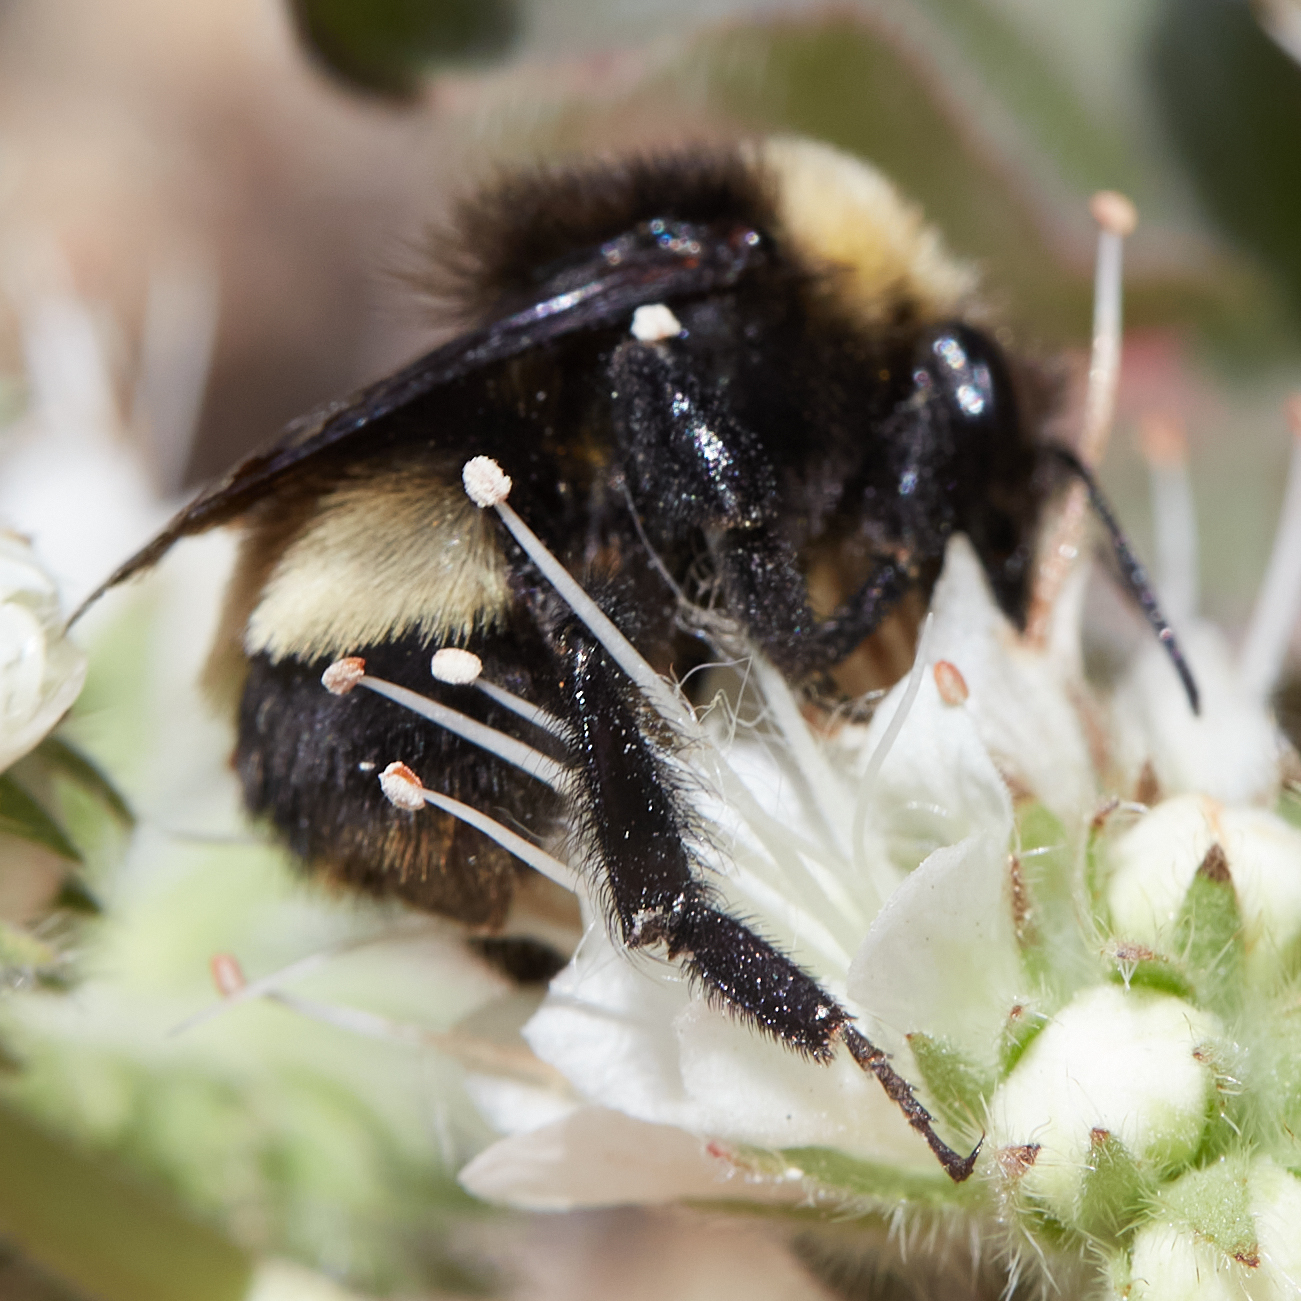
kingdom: Animalia
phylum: Arthropoda
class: Insecta
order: Hymenoptera
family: Apidae
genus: Bombus
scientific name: Bombus crotchii
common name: Crotch bumble bee
